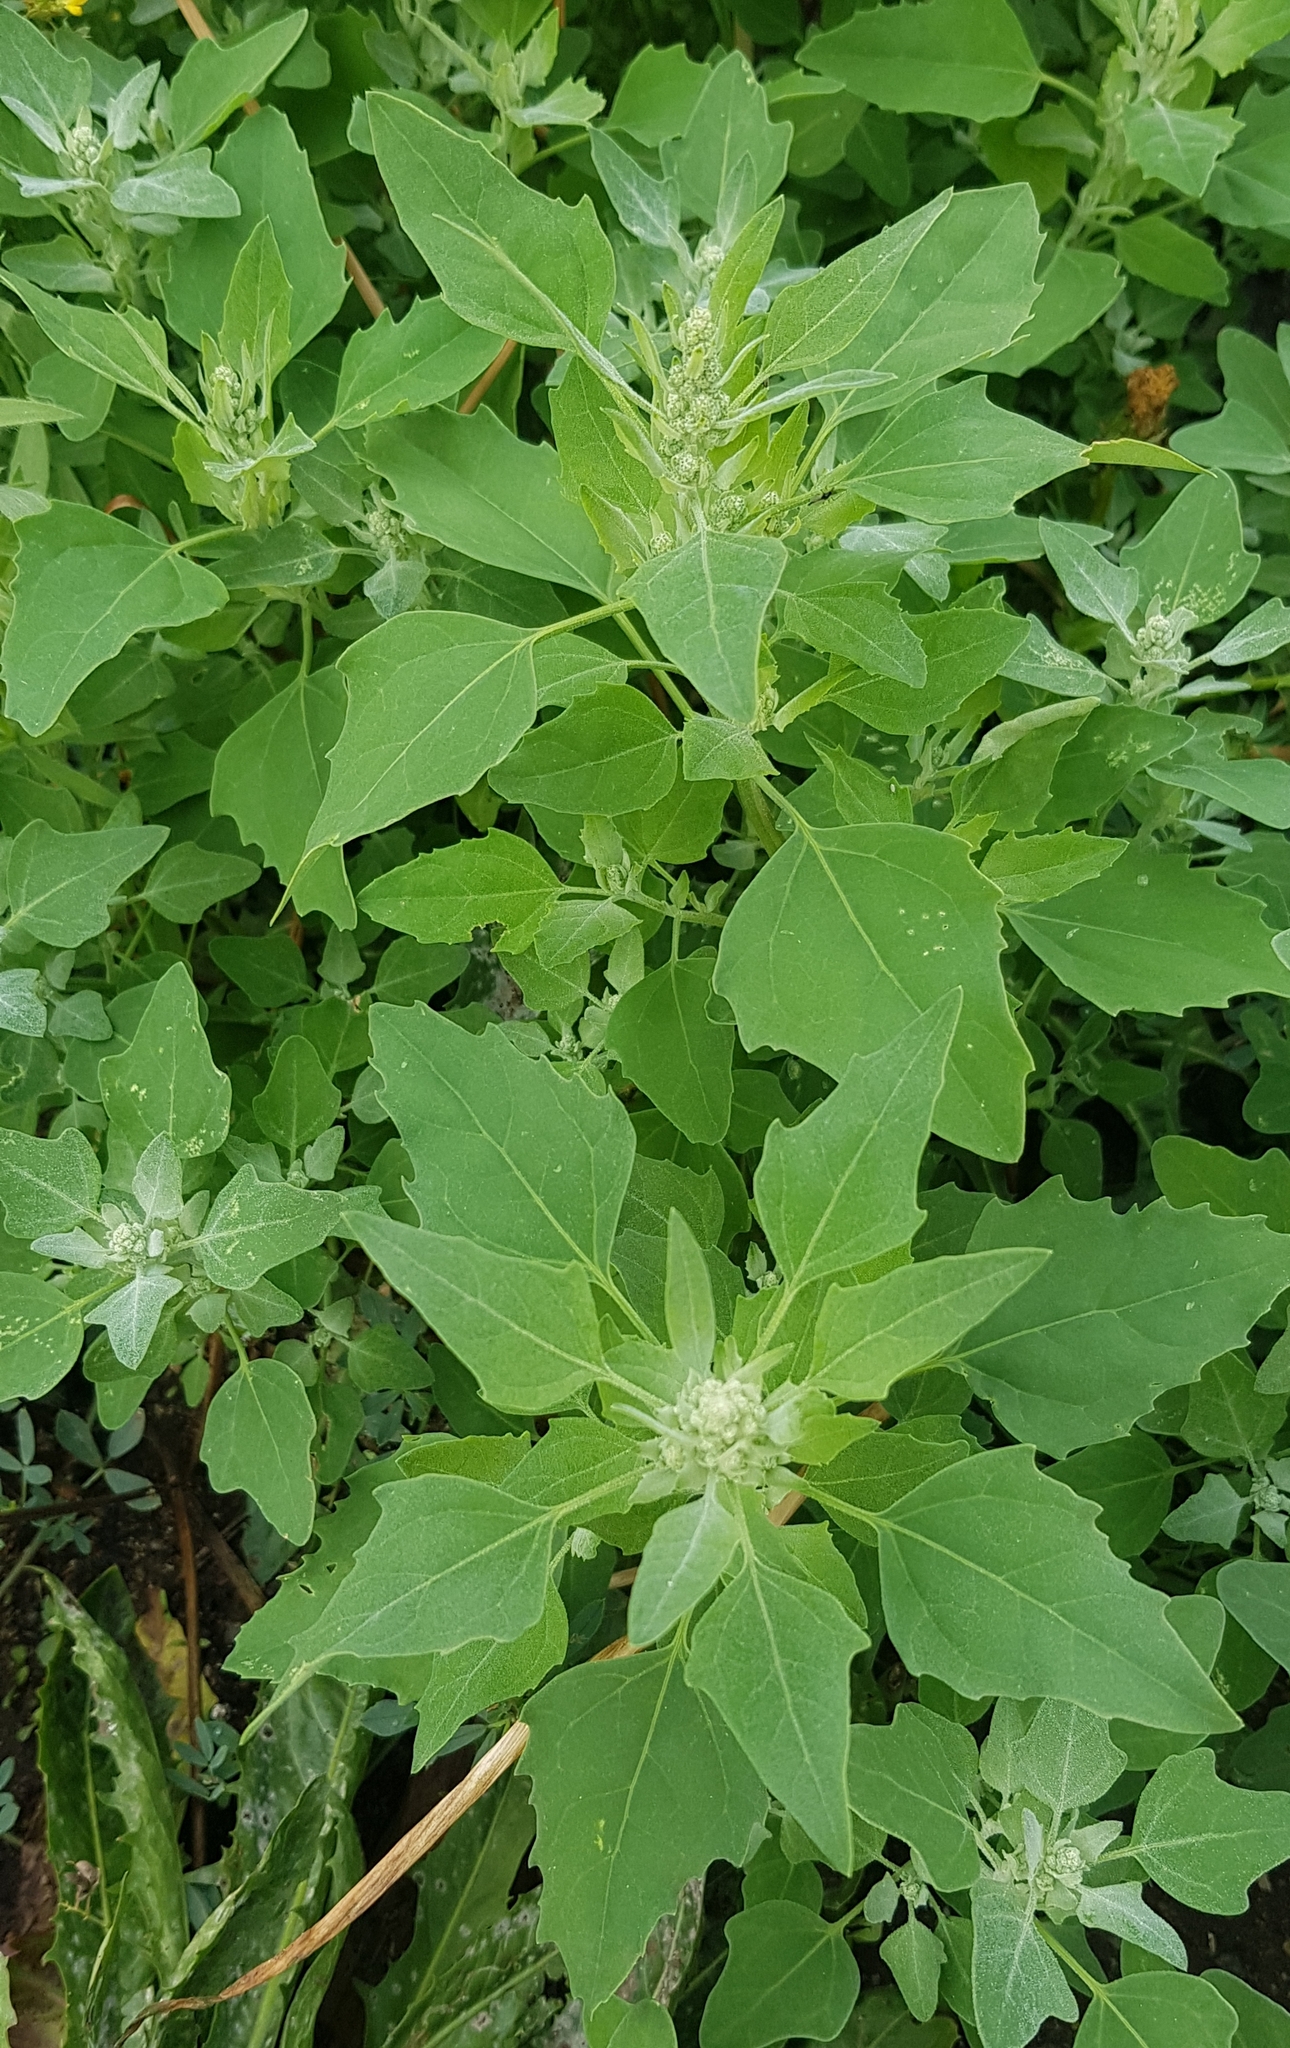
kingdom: Plantae
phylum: Tracheophyta
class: Magnoliopsida
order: Caryophyllales
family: Amaranthaceae
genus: Chenopodium
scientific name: Chenopodium album
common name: Fat-hen
